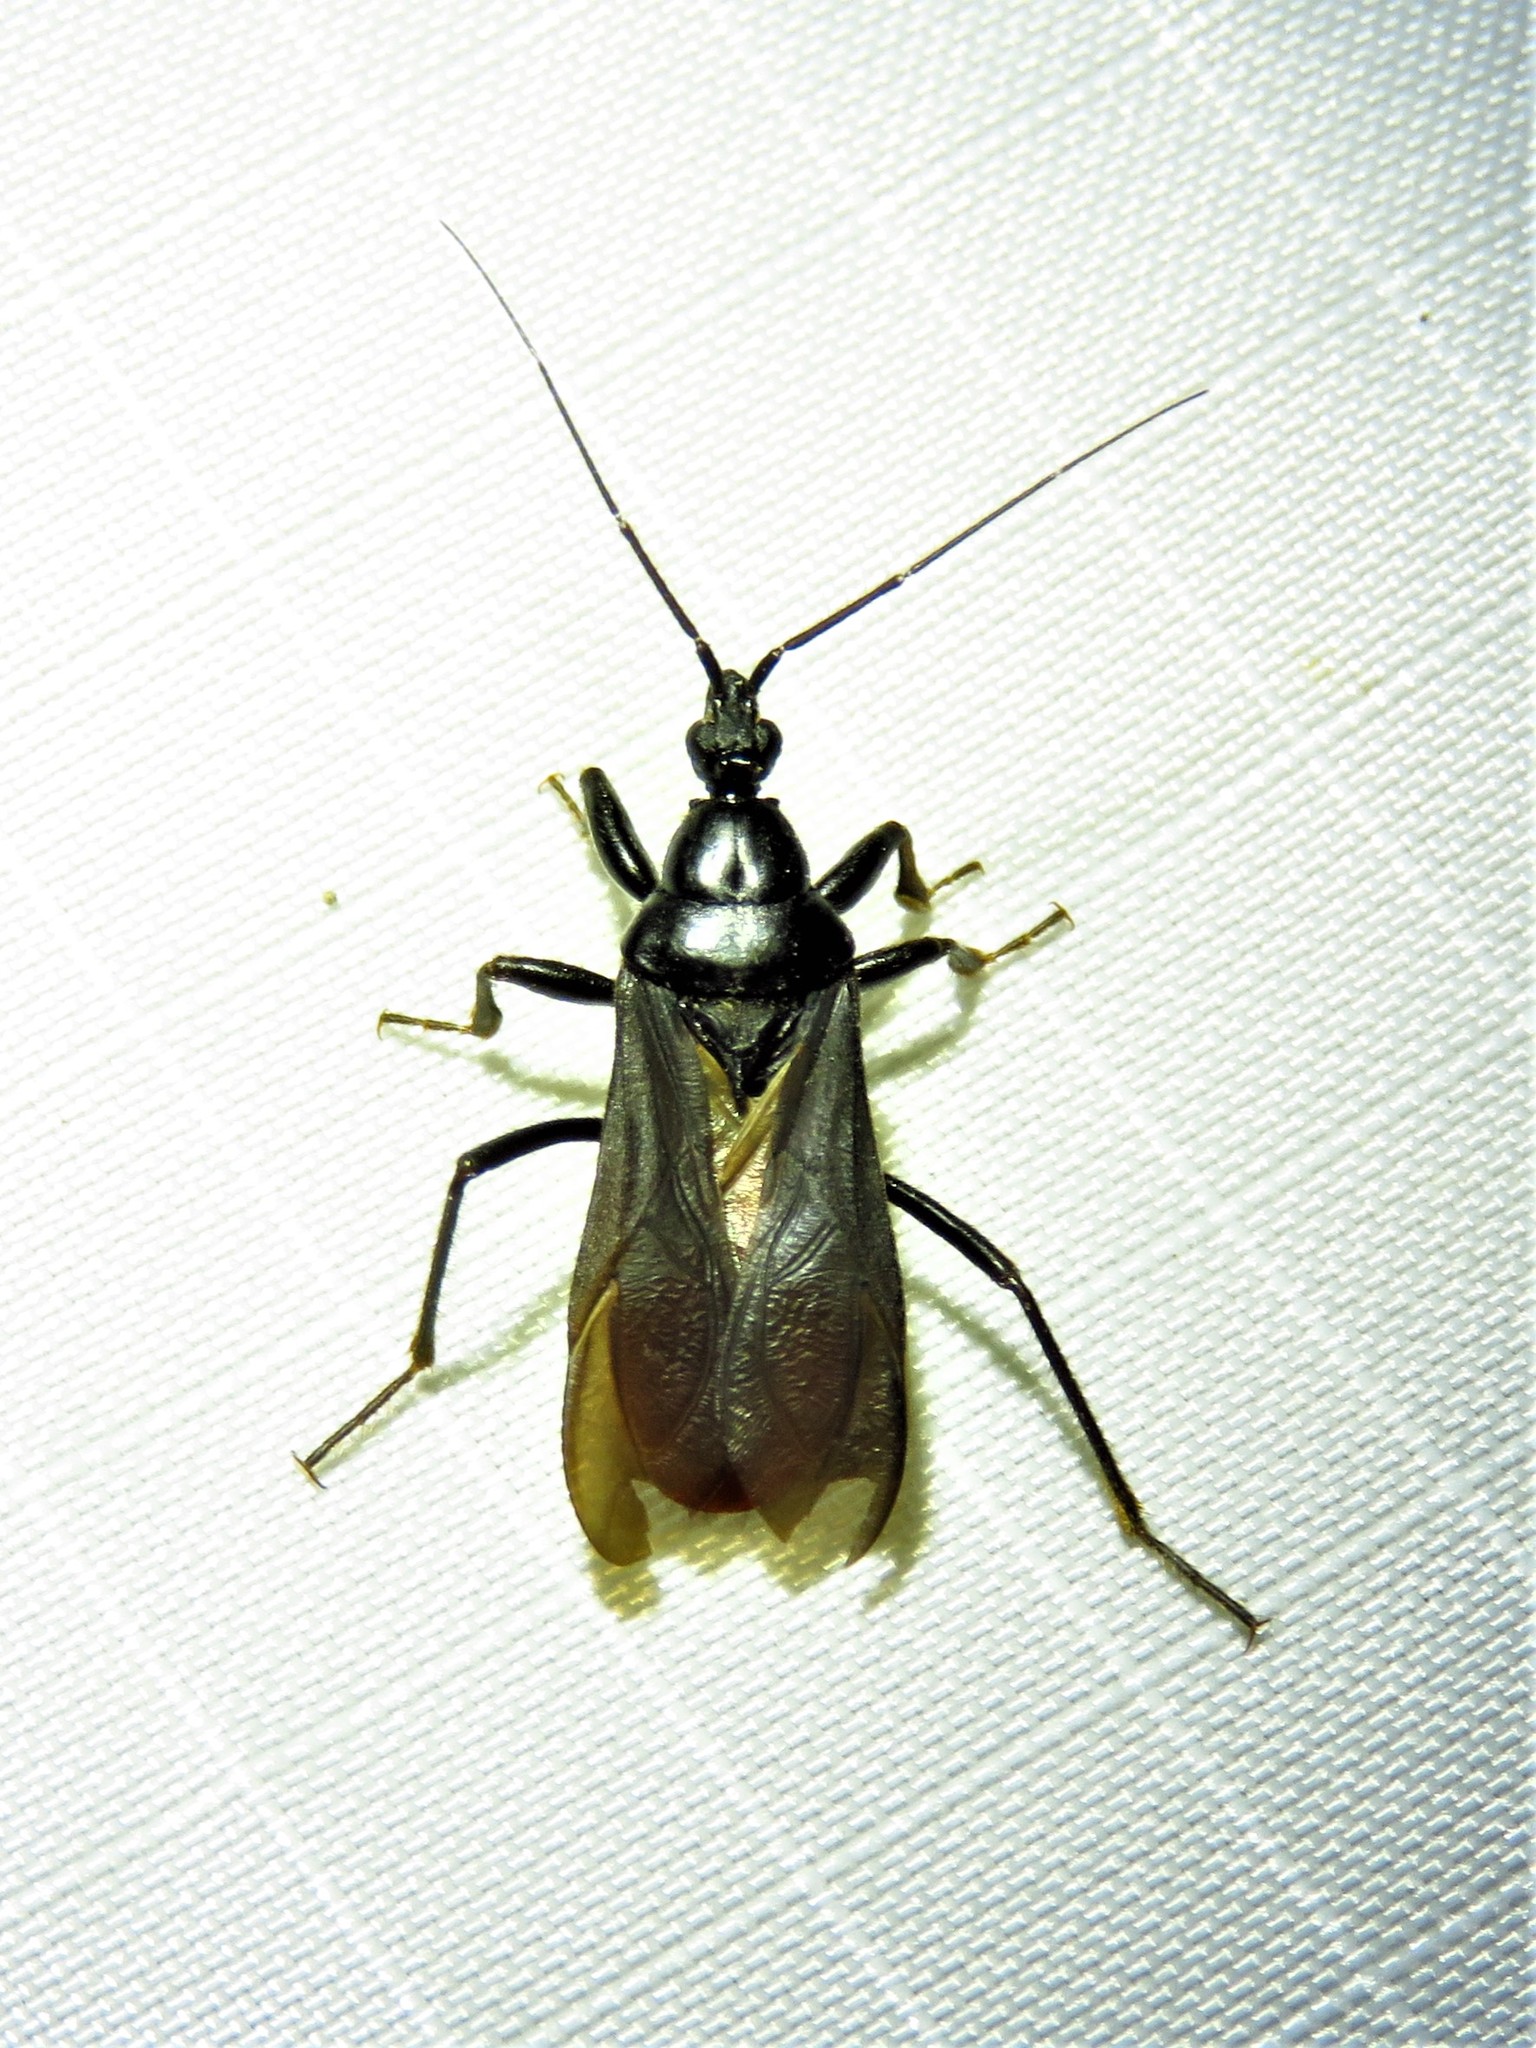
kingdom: Animalia
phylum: Arthropoda
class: Insecta
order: Hemiptera
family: Reduviidae
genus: Melanolestes
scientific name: Melanolestes picipes
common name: Assassin bug
